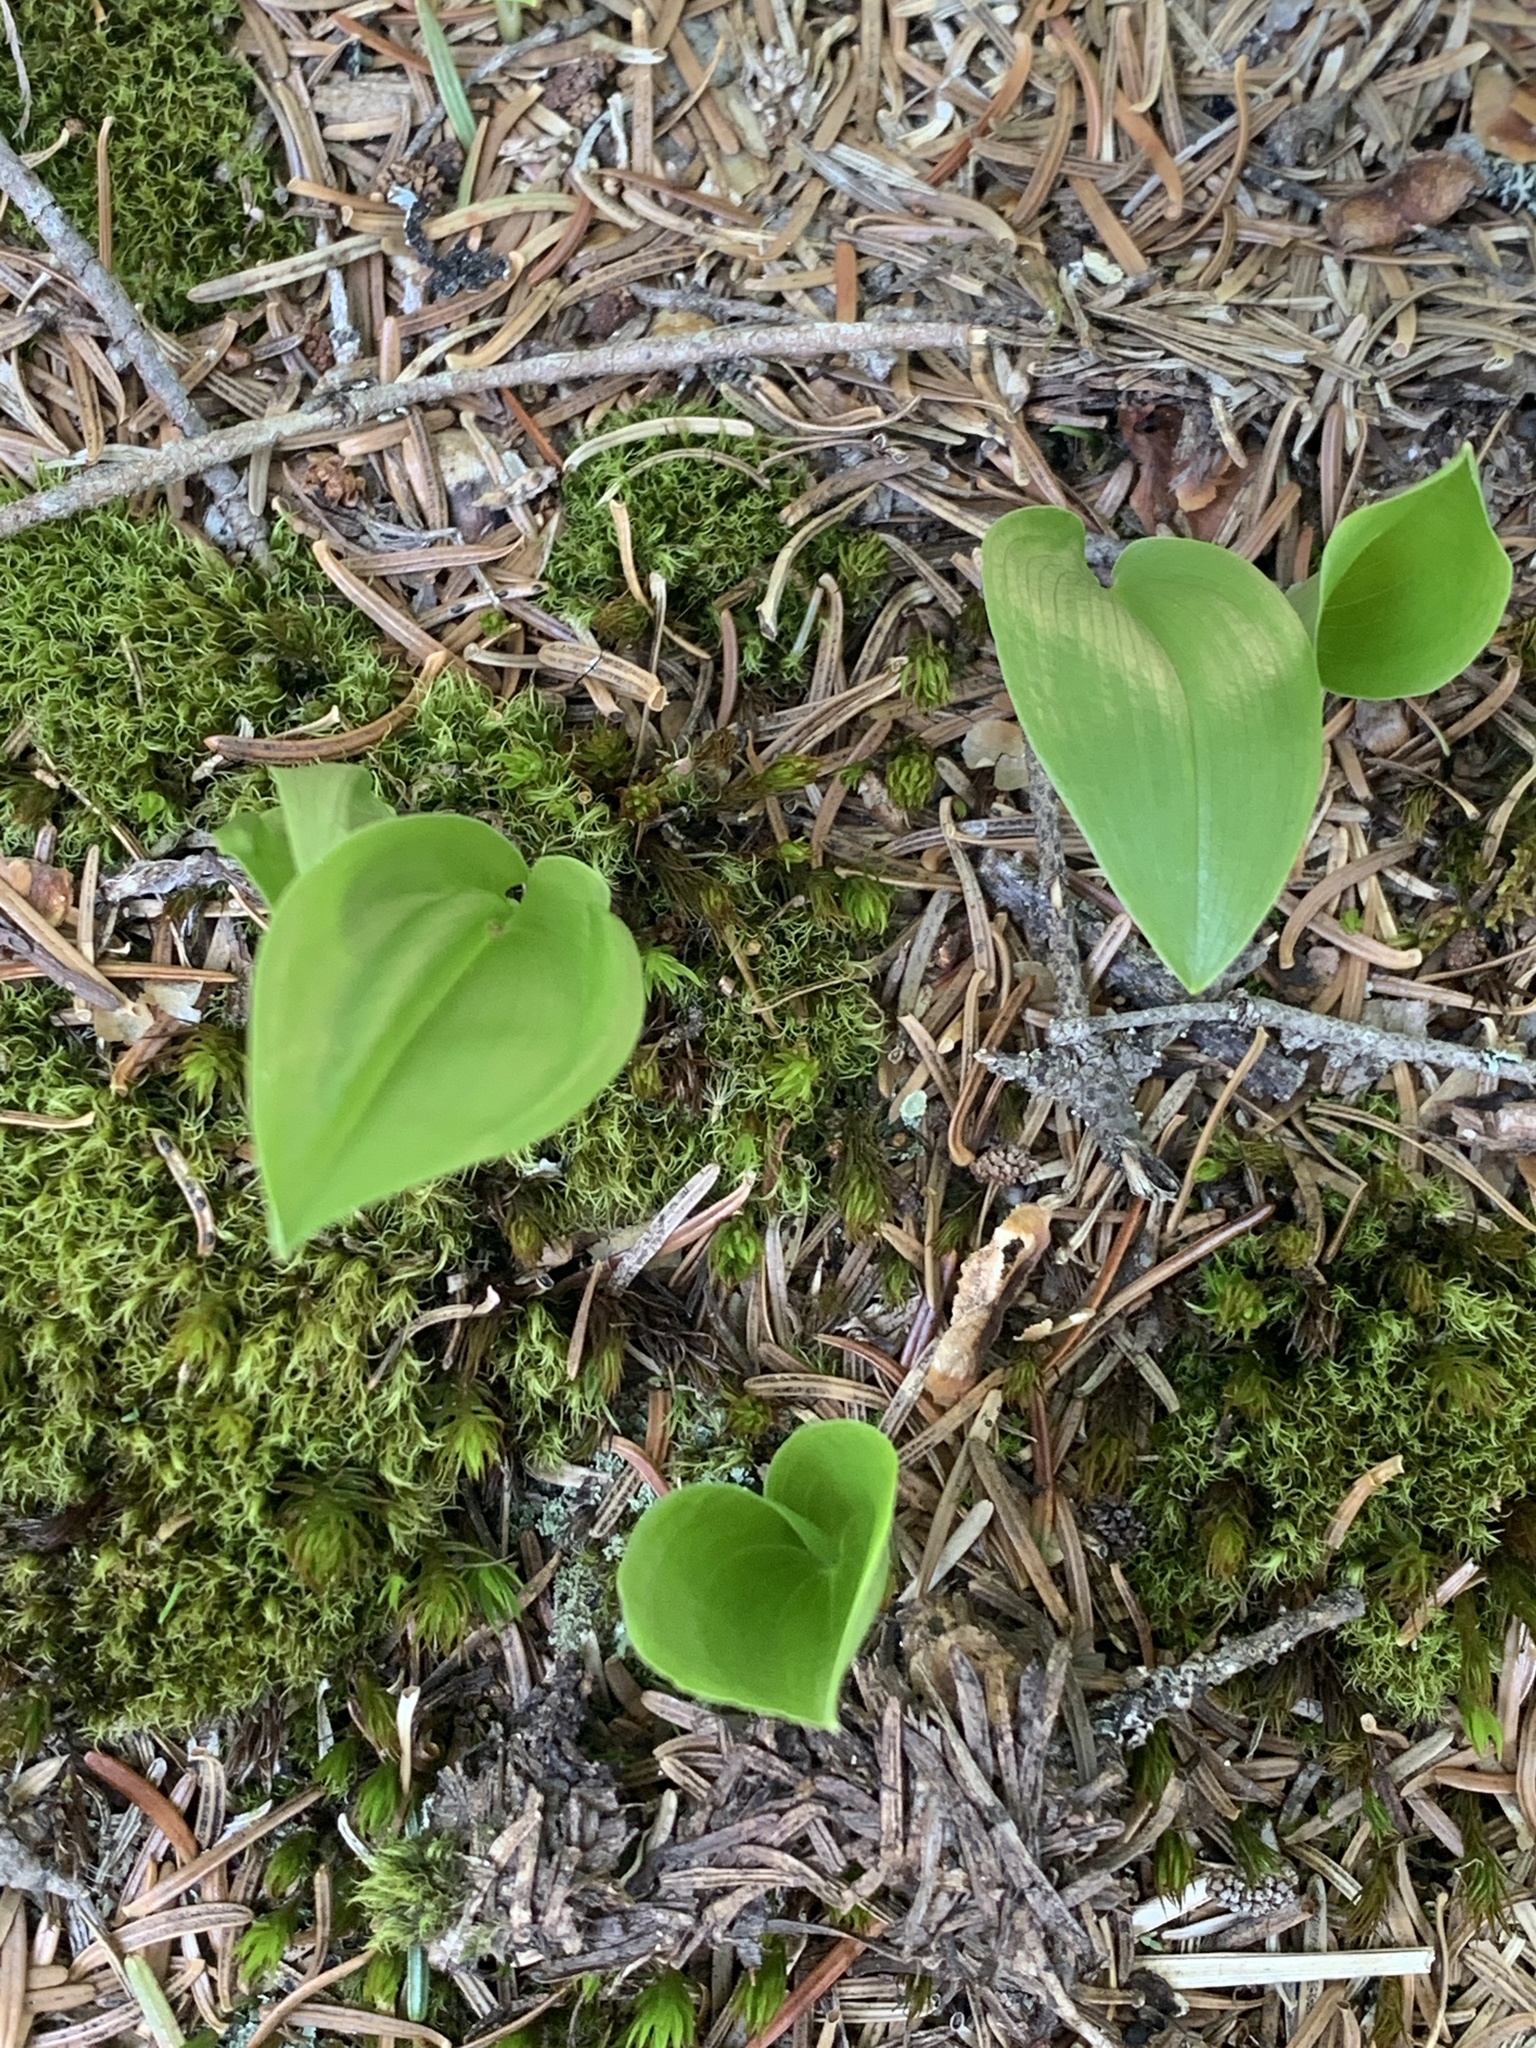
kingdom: Plantae
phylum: Tracheophyta
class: Liliopsida
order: Asparagales
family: Asparagaceae
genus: Maianthemum
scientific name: Maianthemum canadense
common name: False lily-of-the-valley
